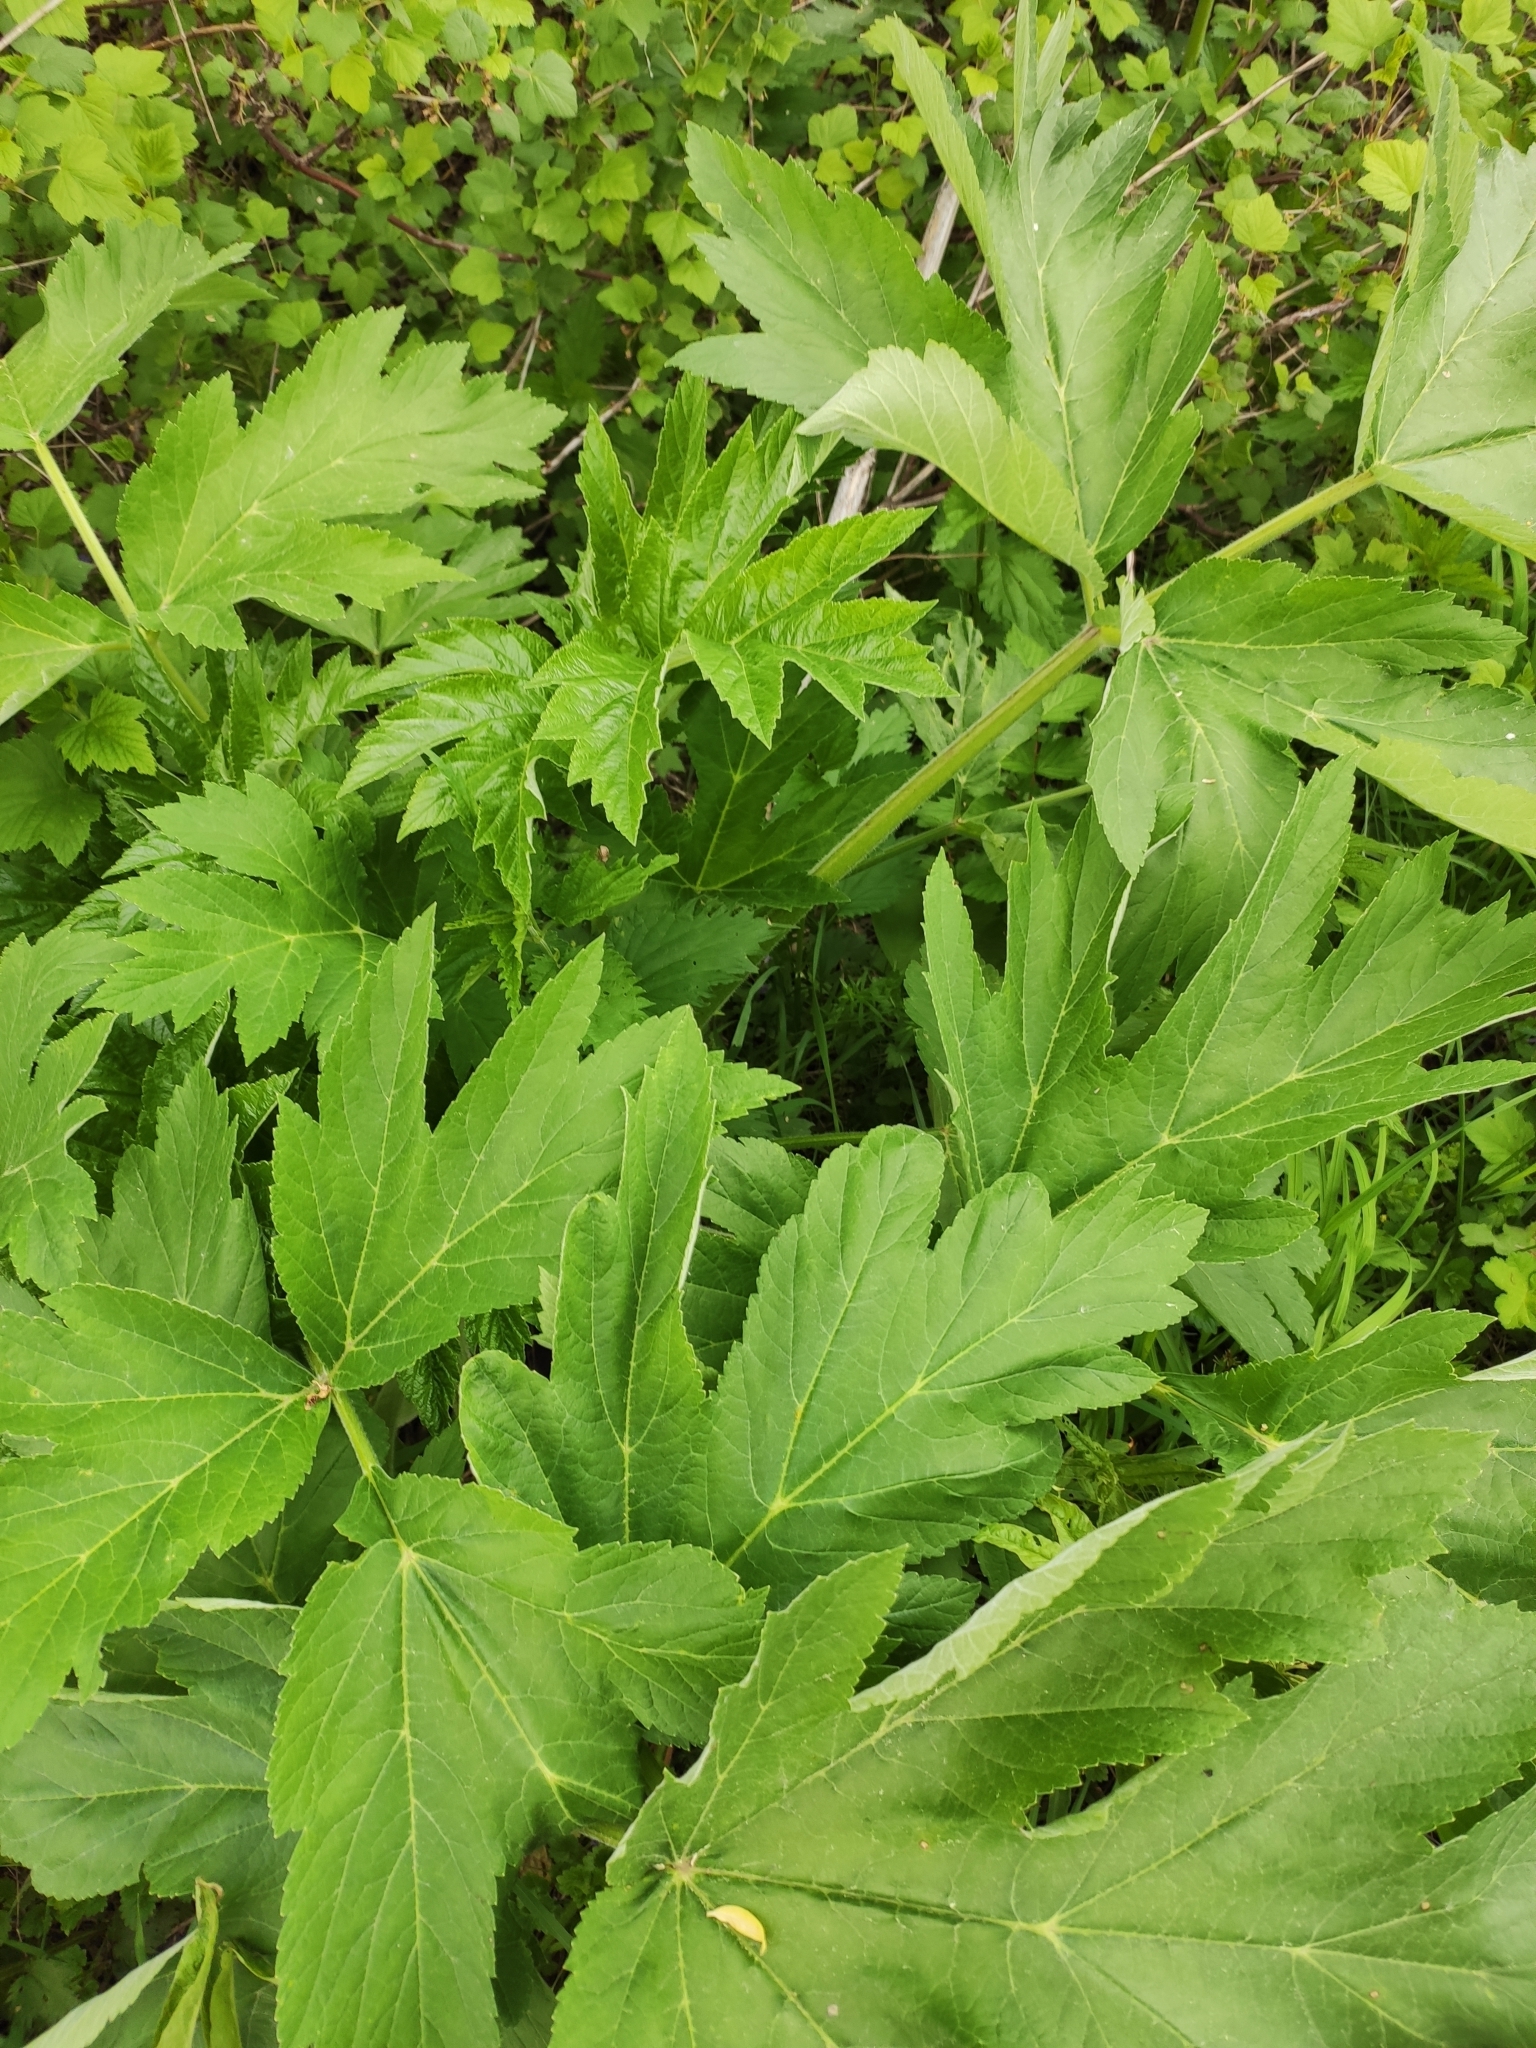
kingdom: Plantae
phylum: Tracheophyta
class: Magnoliopsida
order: Apiales
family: Apiaceae
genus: Heracleum
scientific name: Heracleum dissectum
